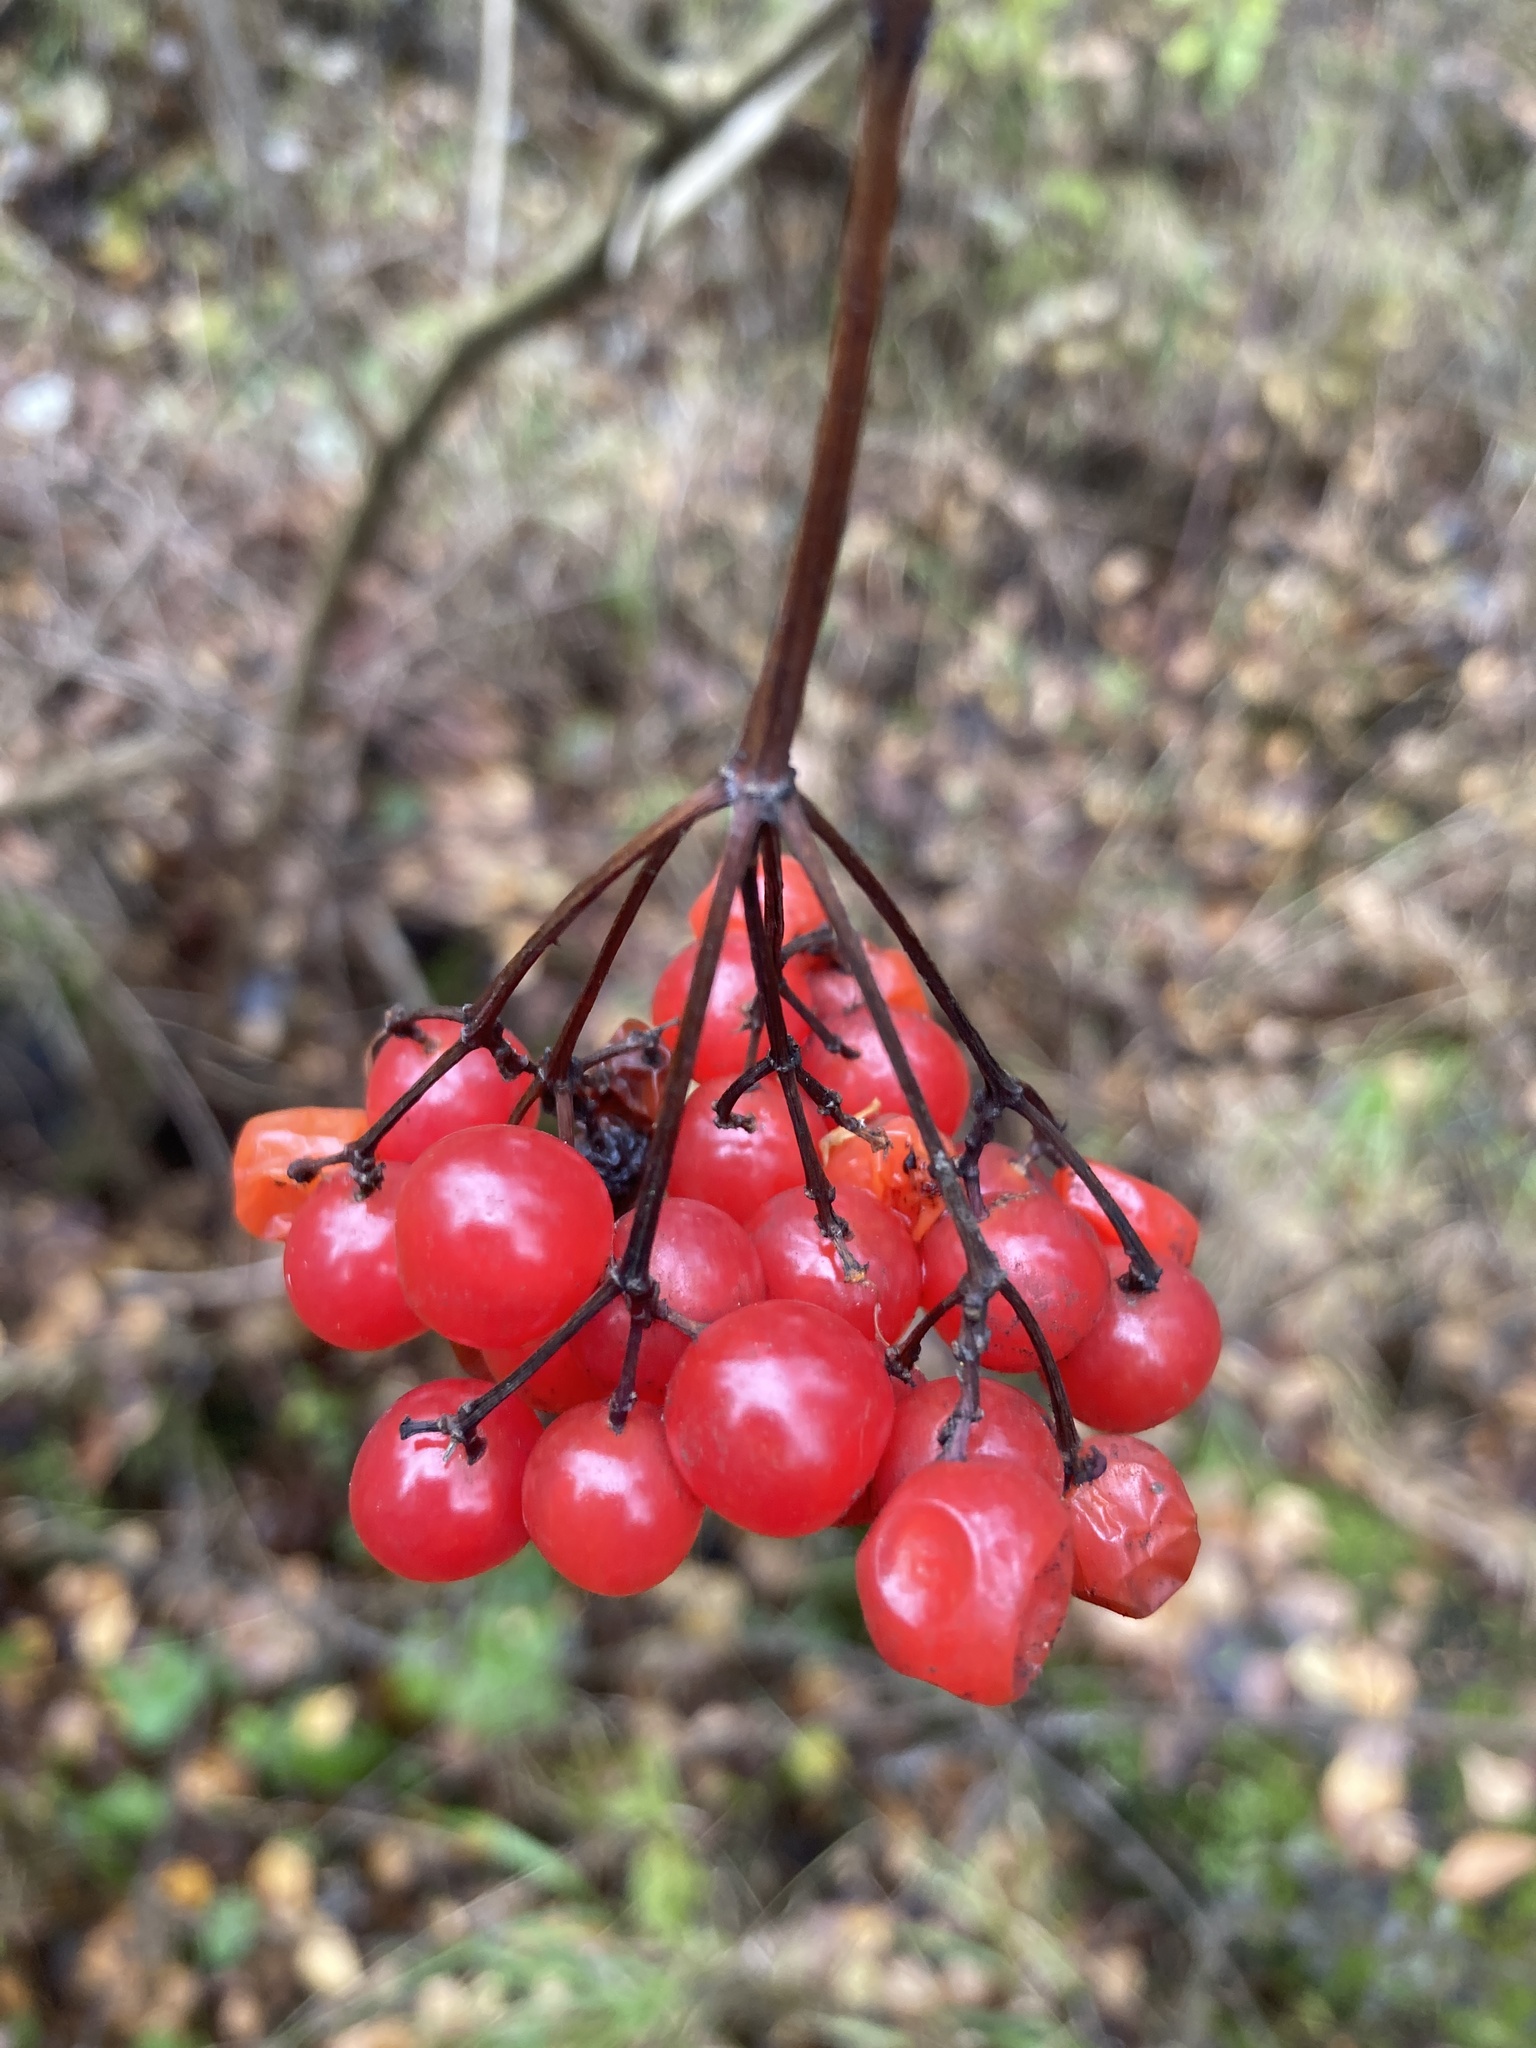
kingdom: Plantae
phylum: Tracheophyta
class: Magnoliopsida
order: Dipsacales
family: Viburnaceae
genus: Viburnum
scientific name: Viburnum opulus
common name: Guelder-rose
